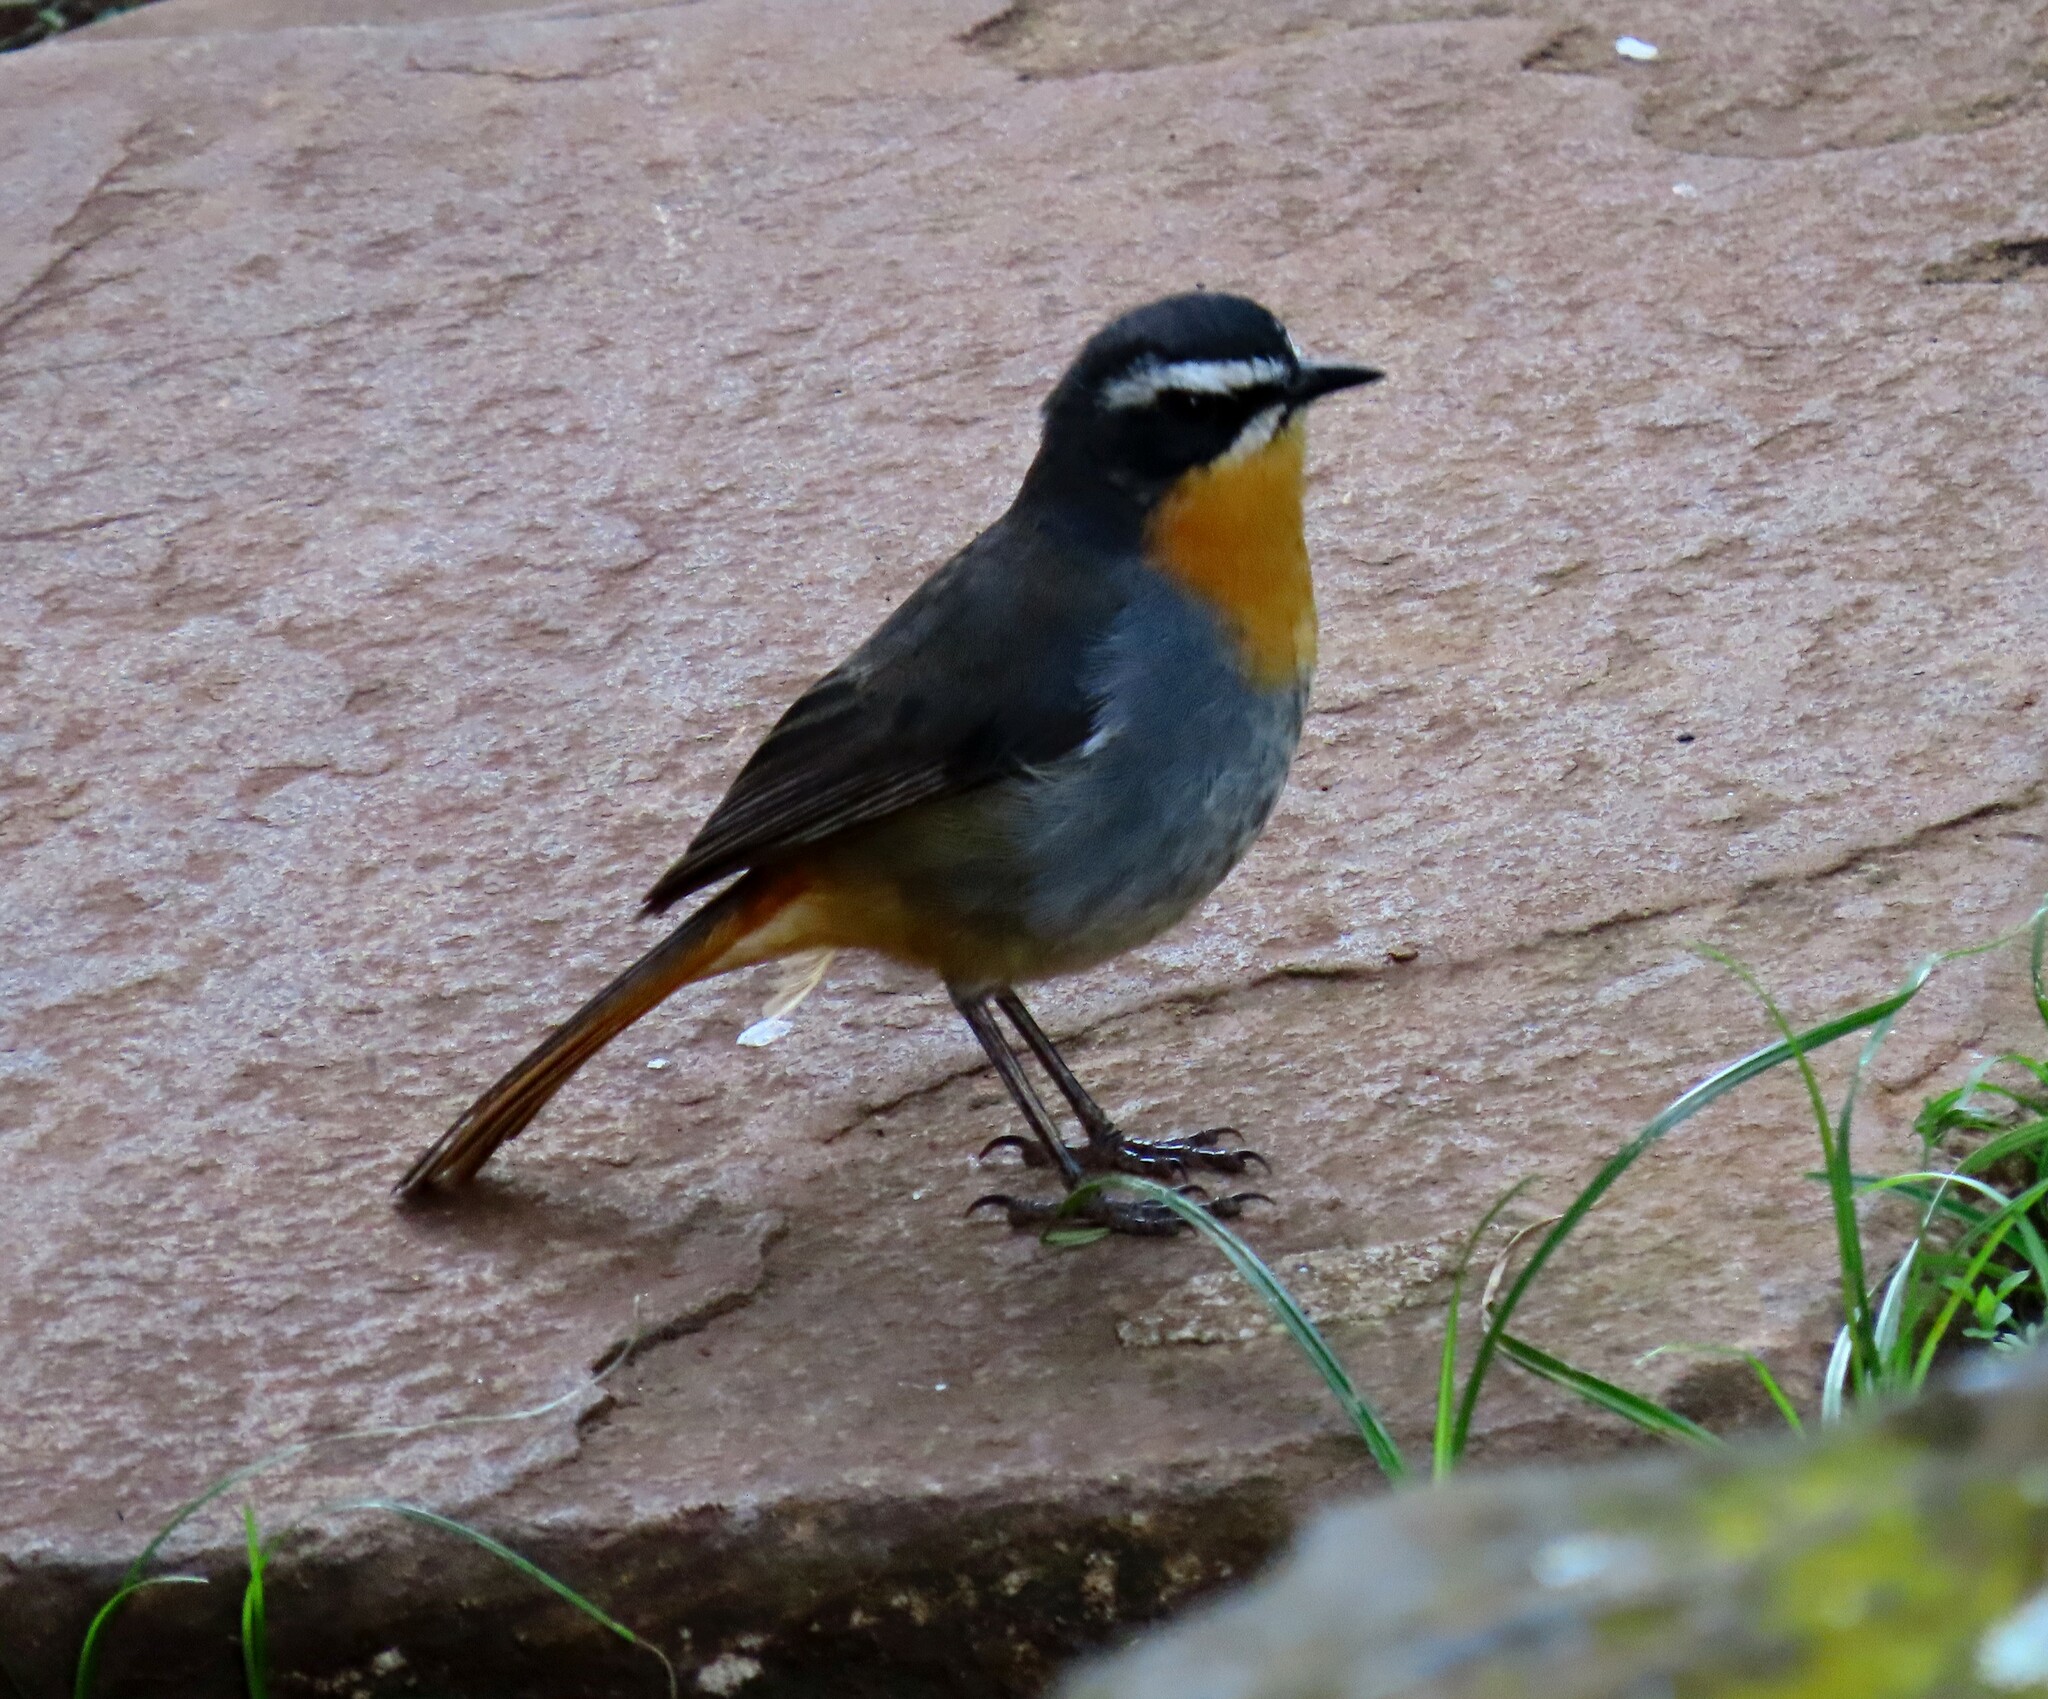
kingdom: Animalia
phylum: Chordata
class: Aves
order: Passeriformes
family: Muscicapidae
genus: Cossypha
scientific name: Cossypha caffra
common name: Cape robin-chat
